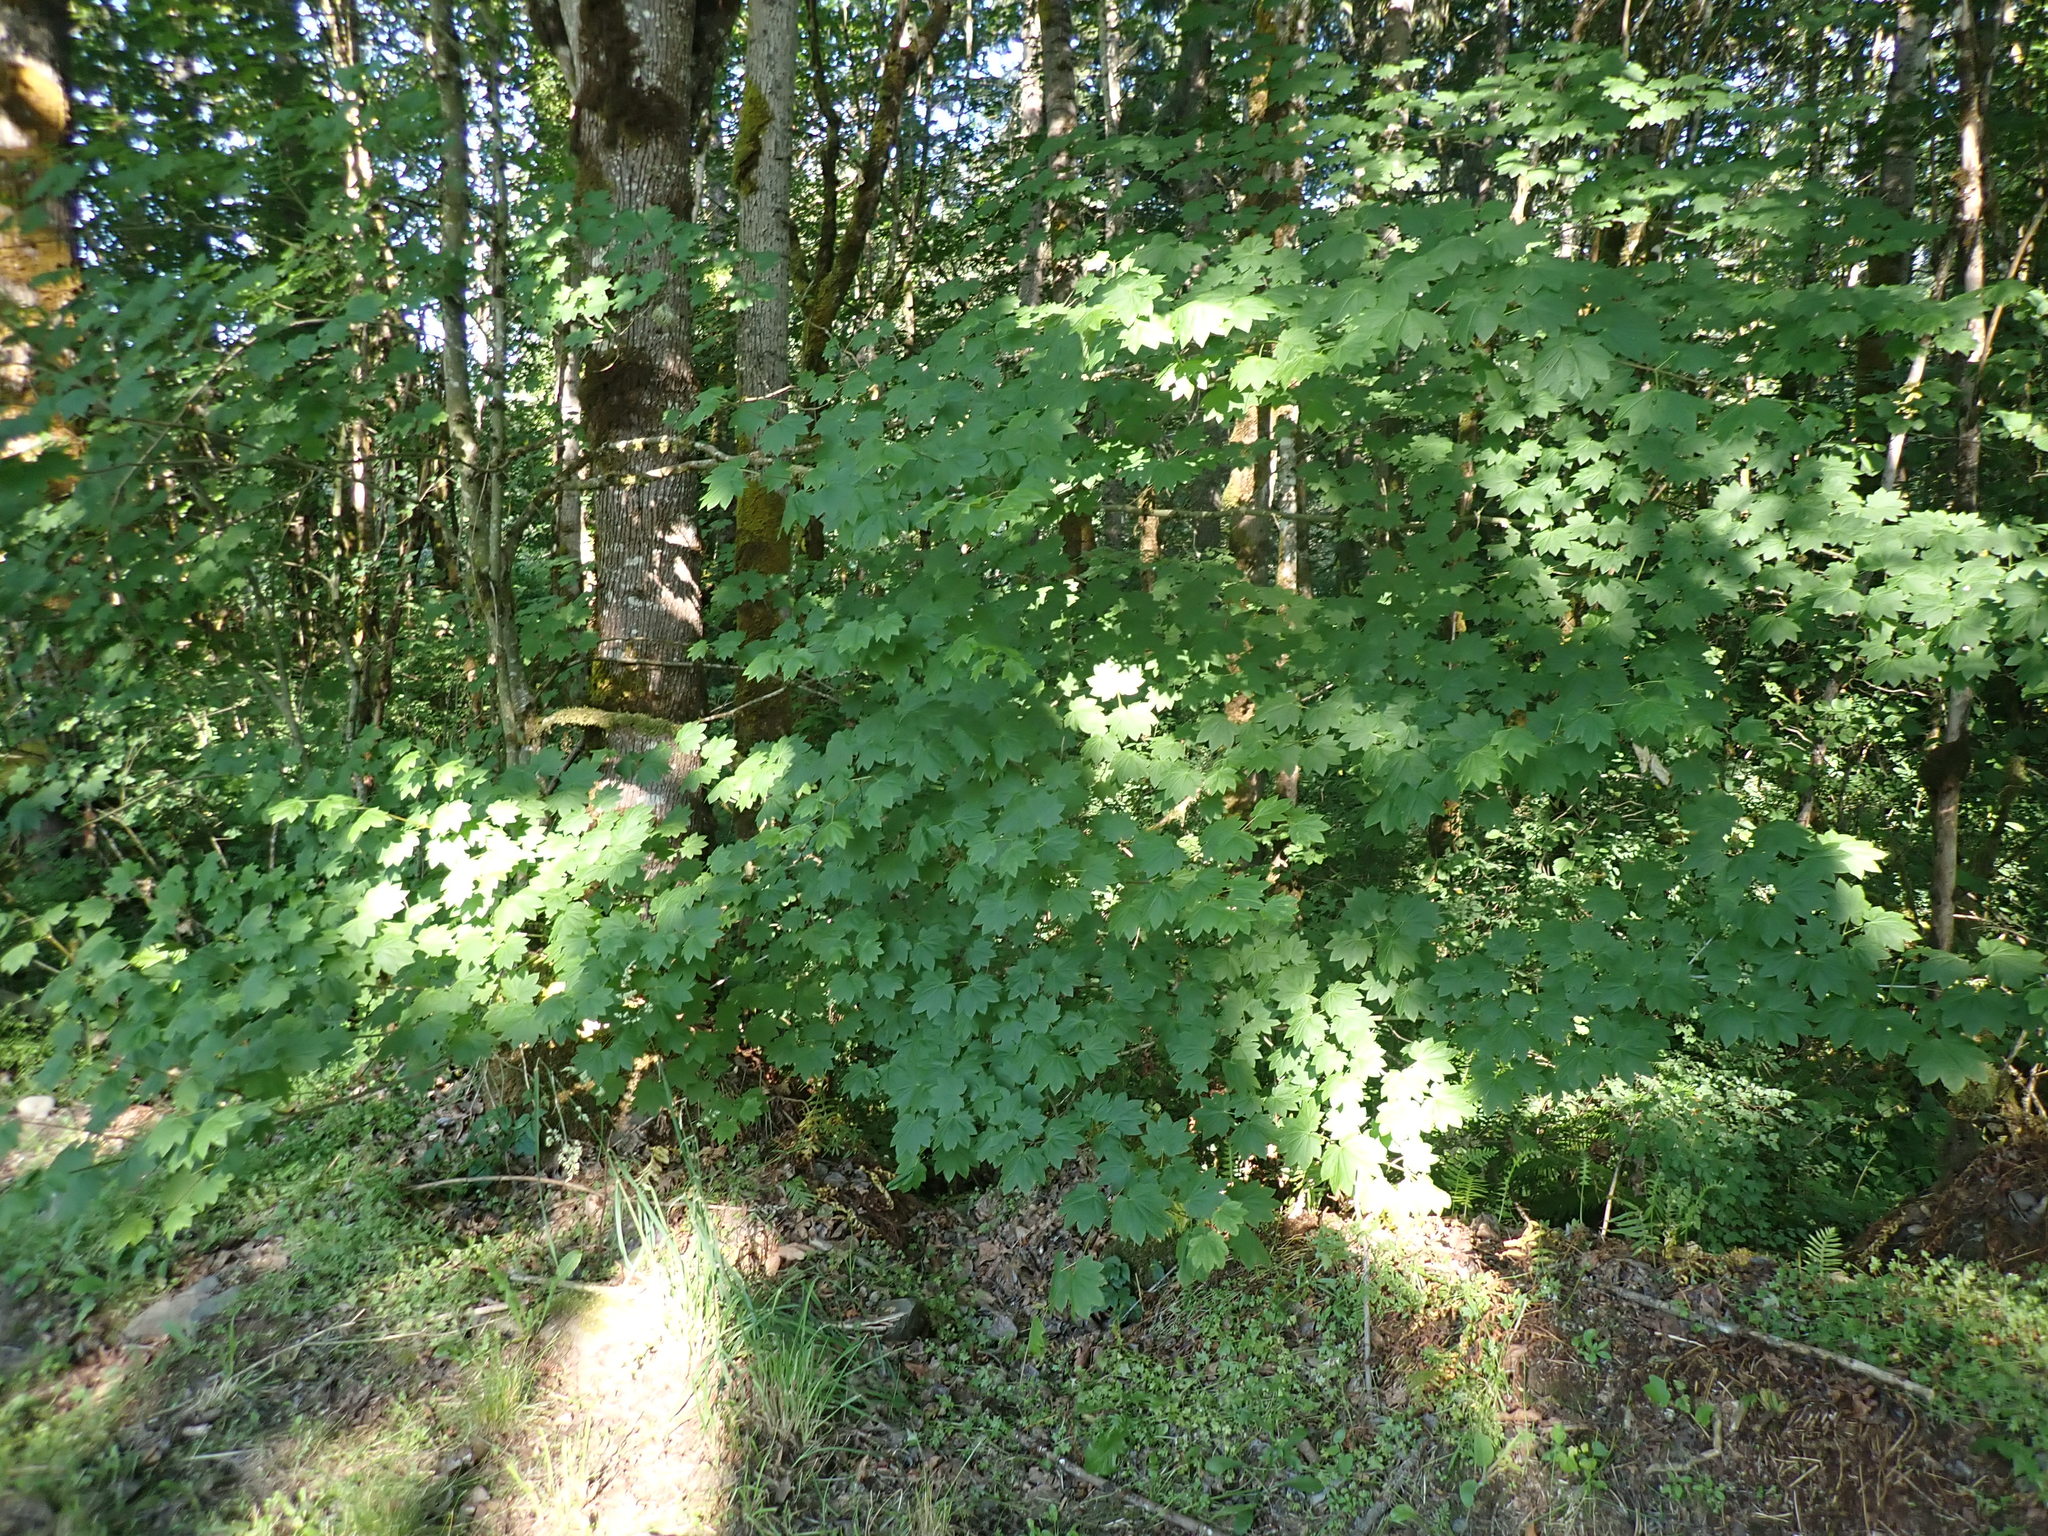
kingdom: Plantae
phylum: Tracheophyta
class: Magnoliopsida
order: Sapindales
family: Sapindaceae
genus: Acer
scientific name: Acer circinatum
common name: Vine maple
